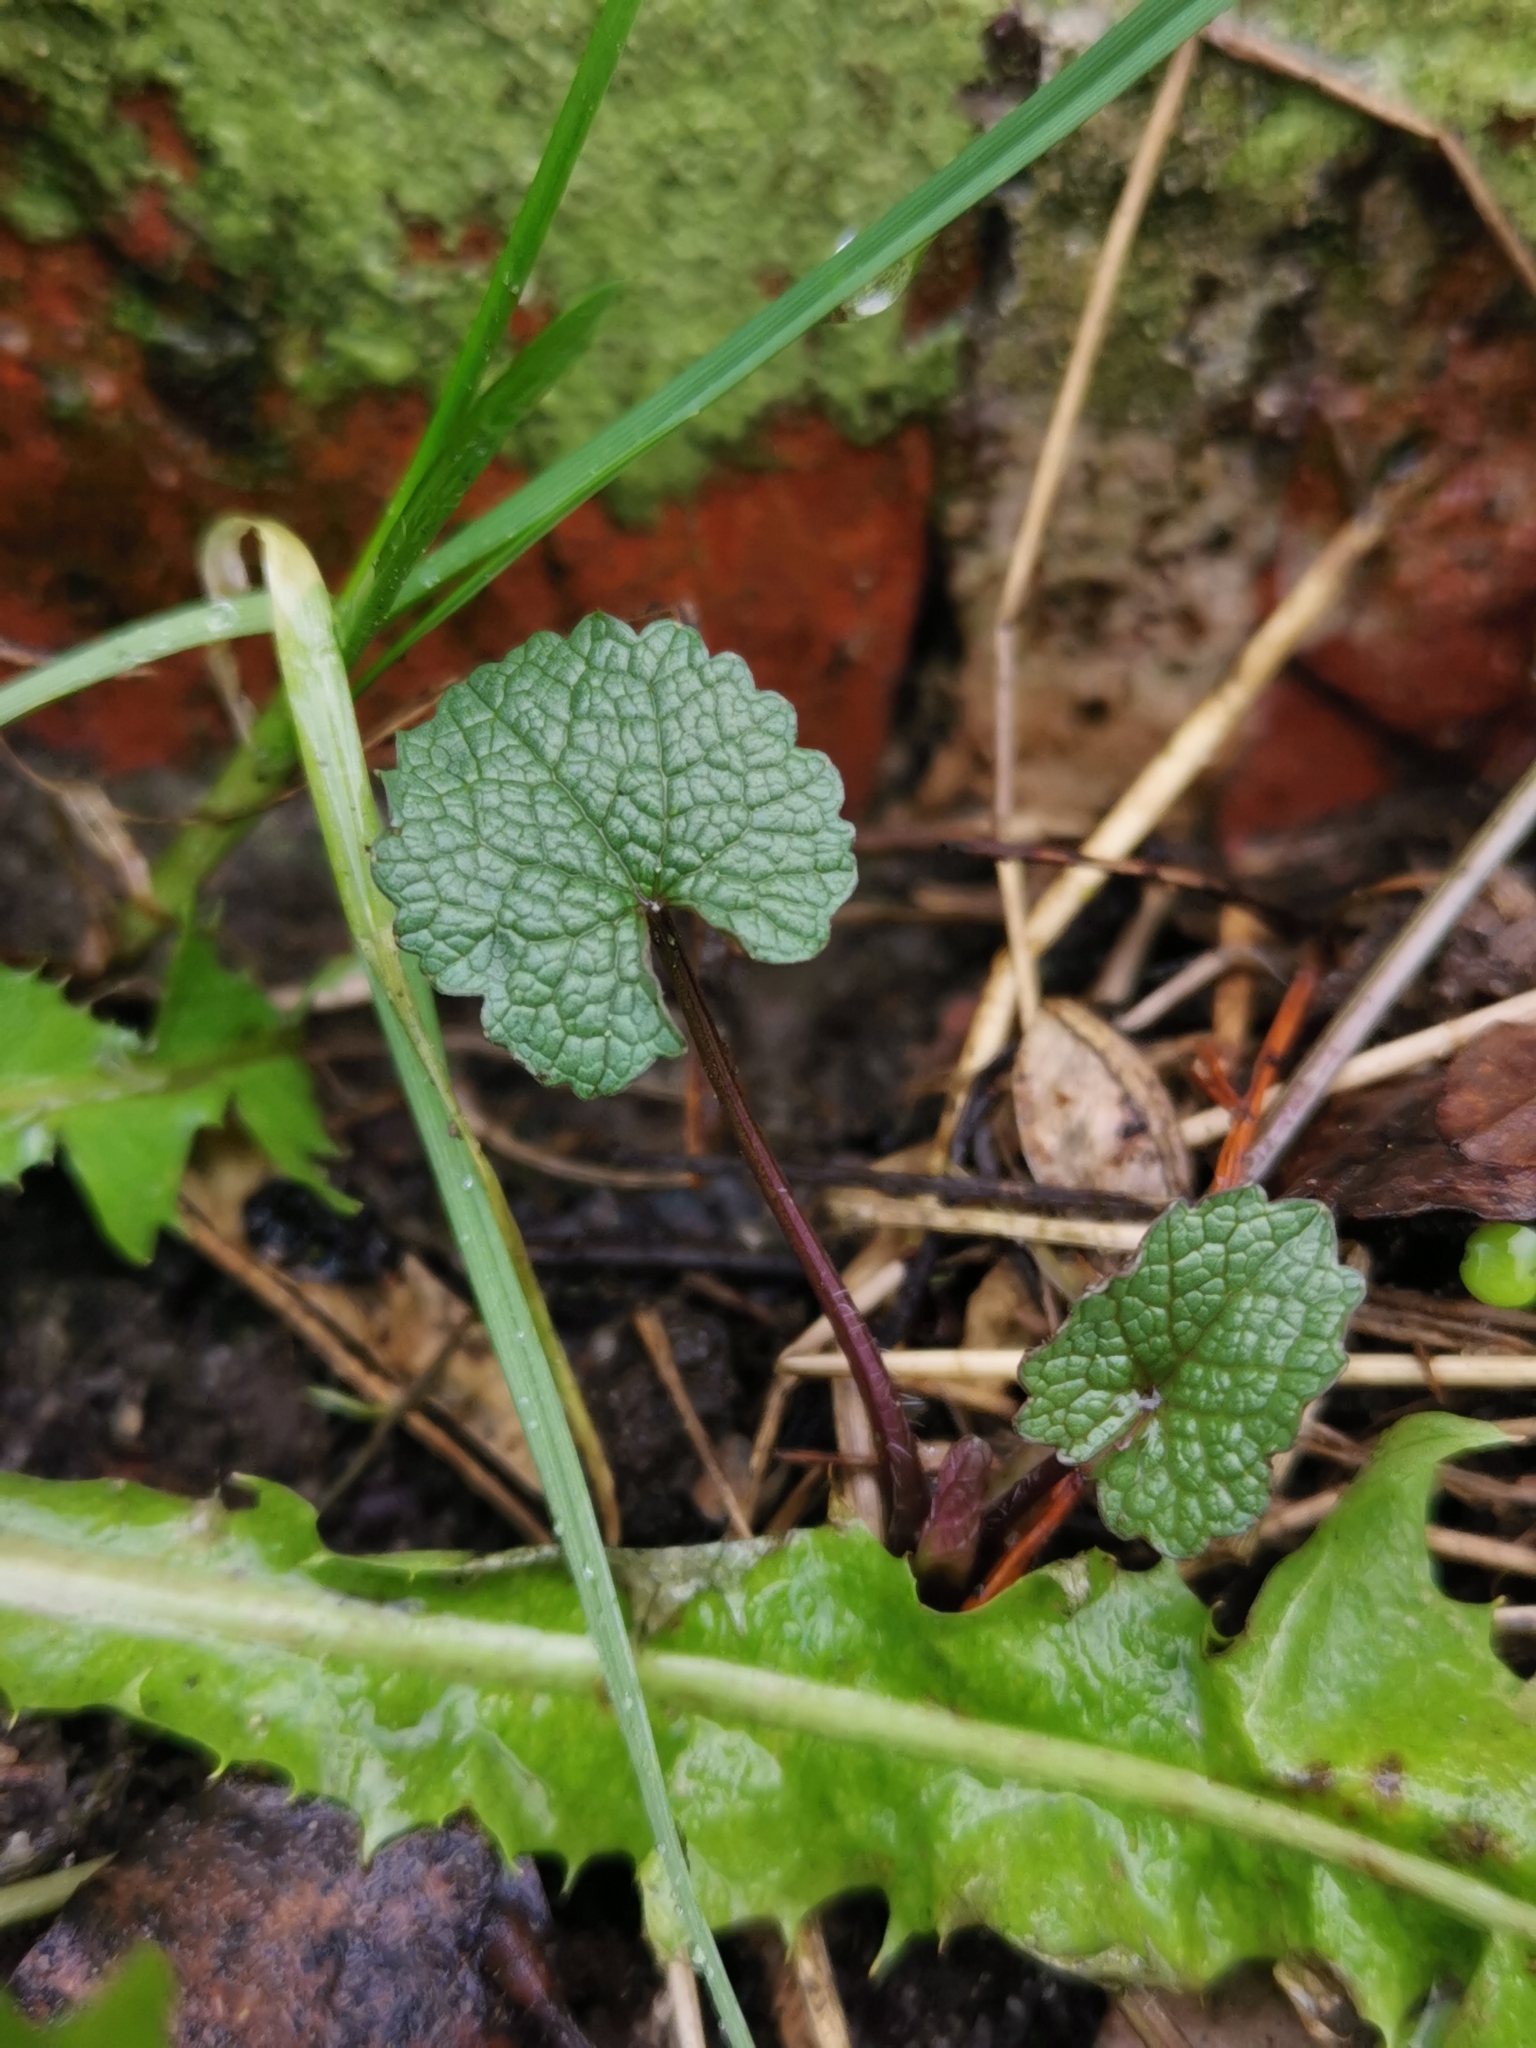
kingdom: Plantae
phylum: Tracheophyta
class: Magnoliopsida
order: Brassicales
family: Brassicaceae
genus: Alliaria
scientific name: Alliaria petiolata
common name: Garlic mustard
